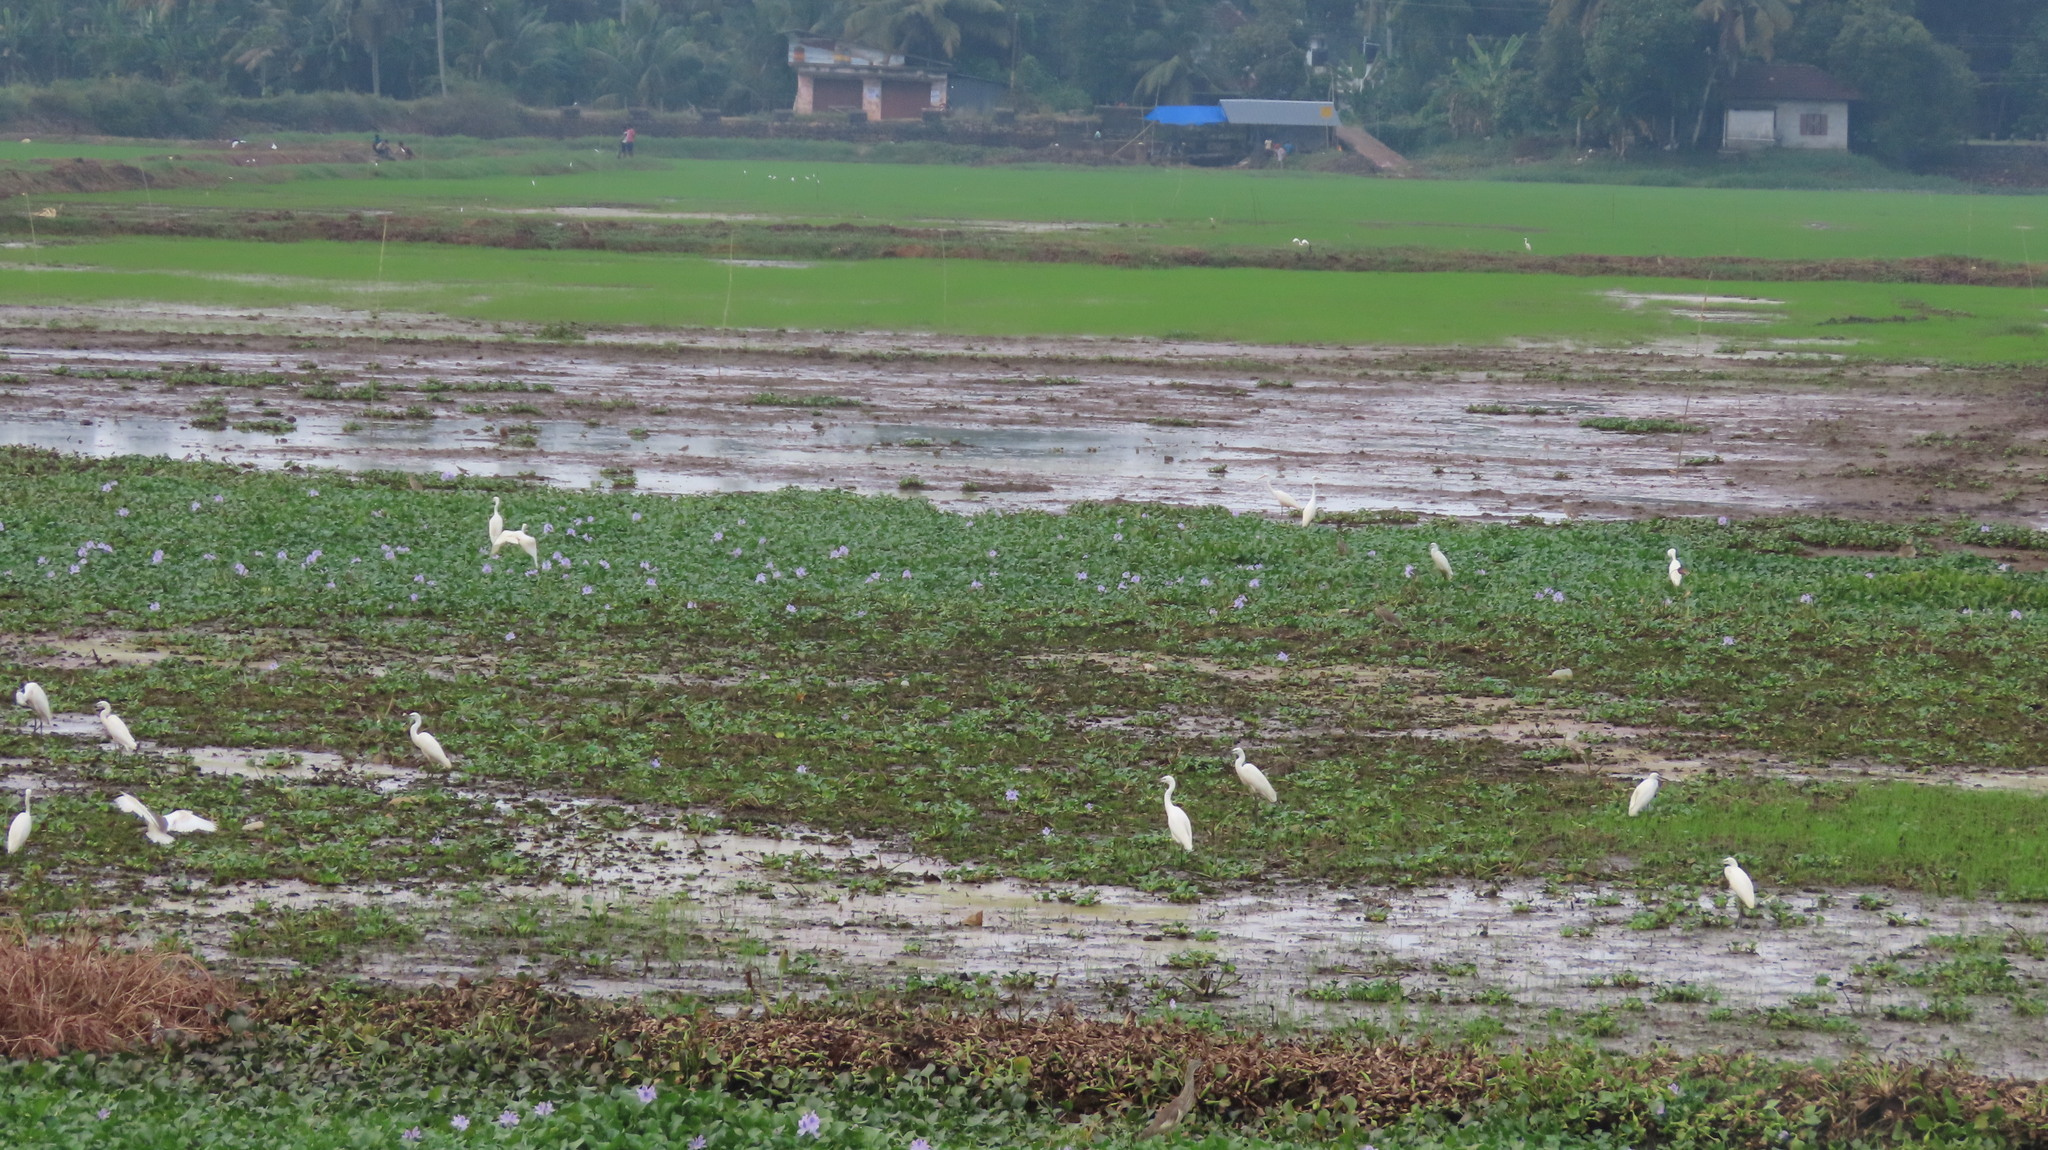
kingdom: Animalia
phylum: Chordata
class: Aves
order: Pelecaniformes
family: Ardeidae
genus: Egretta
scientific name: Egretta garzetta
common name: Little egret
